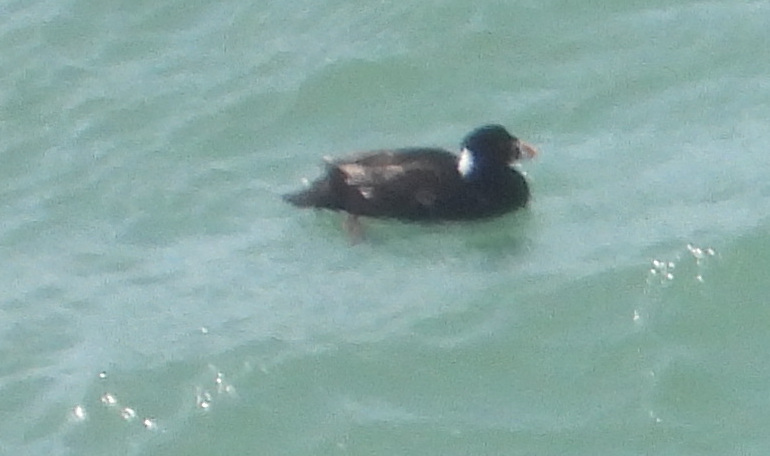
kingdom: Animalia
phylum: Chordata
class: Aves
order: Anseriformes
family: Anatidae
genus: Melanitta
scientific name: Melanitta perspicillata
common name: Surf scoter
